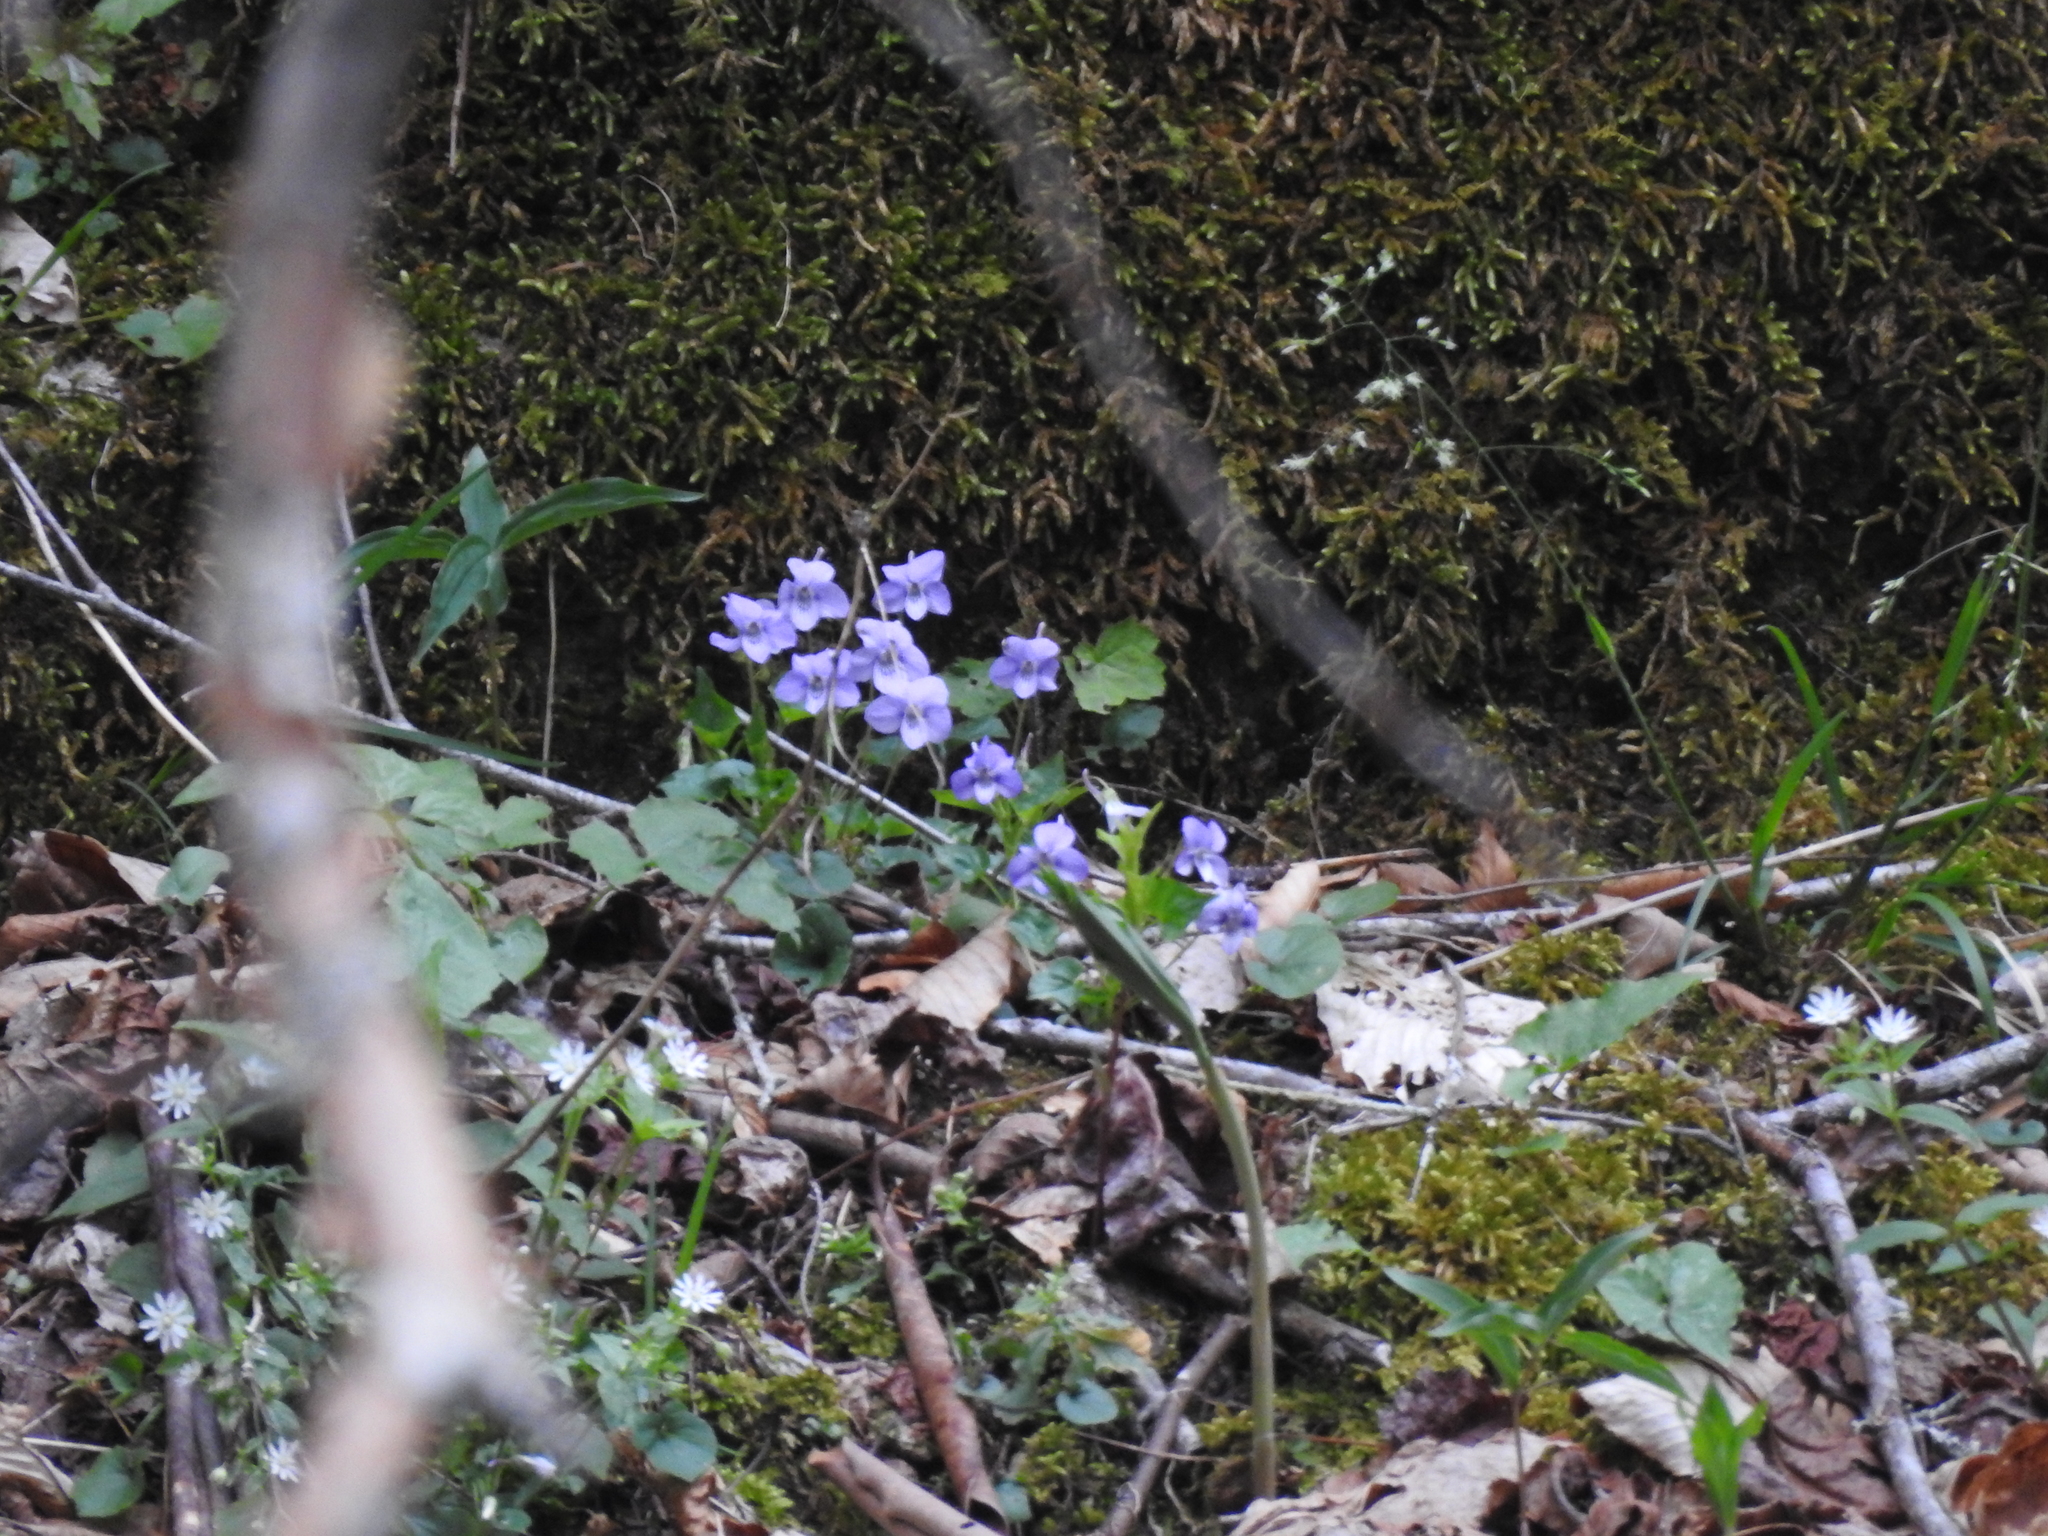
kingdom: Plantae
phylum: Tracheophyta
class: Magnoliopsida
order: Malpighiales
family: Violaceae
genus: Viola
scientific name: Viola rostrata
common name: Long-spur violet
